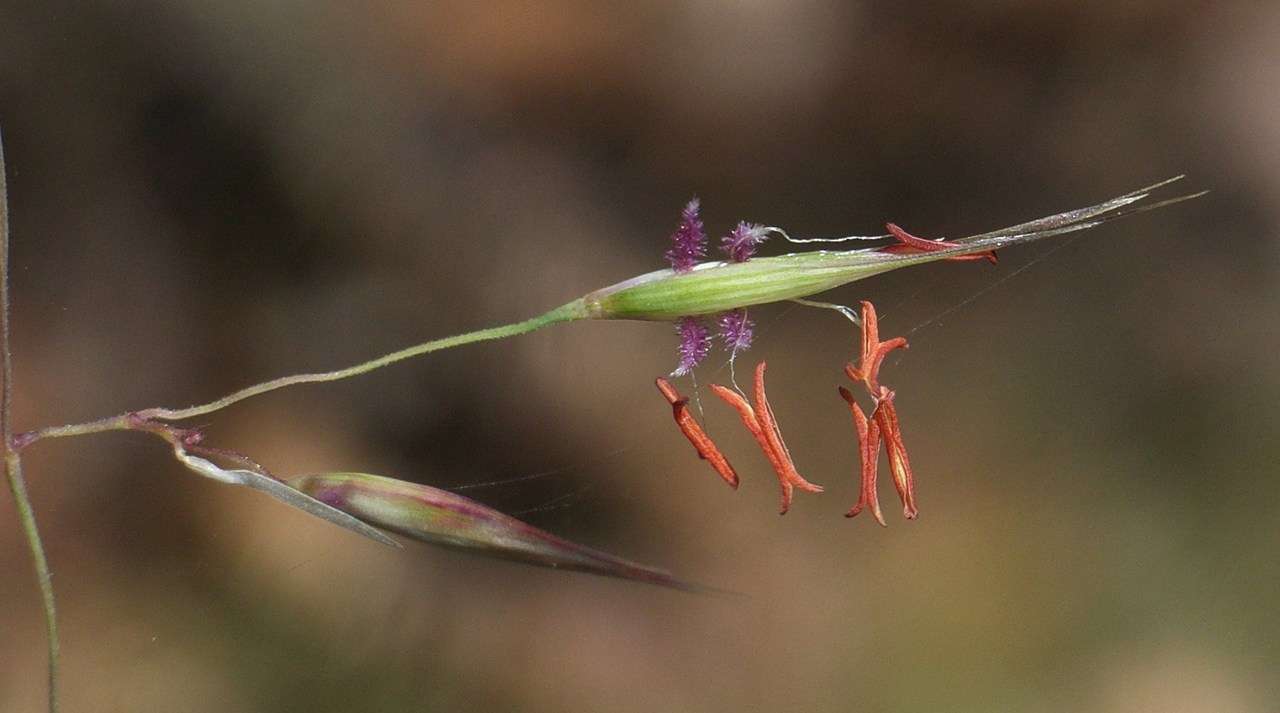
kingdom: Plantae
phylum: Tracheophyta
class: Liliopsida
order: Poales
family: Poaceae
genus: Rytidosperma
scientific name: Rytidosperma pallidum
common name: Red-anther wallaby grass
